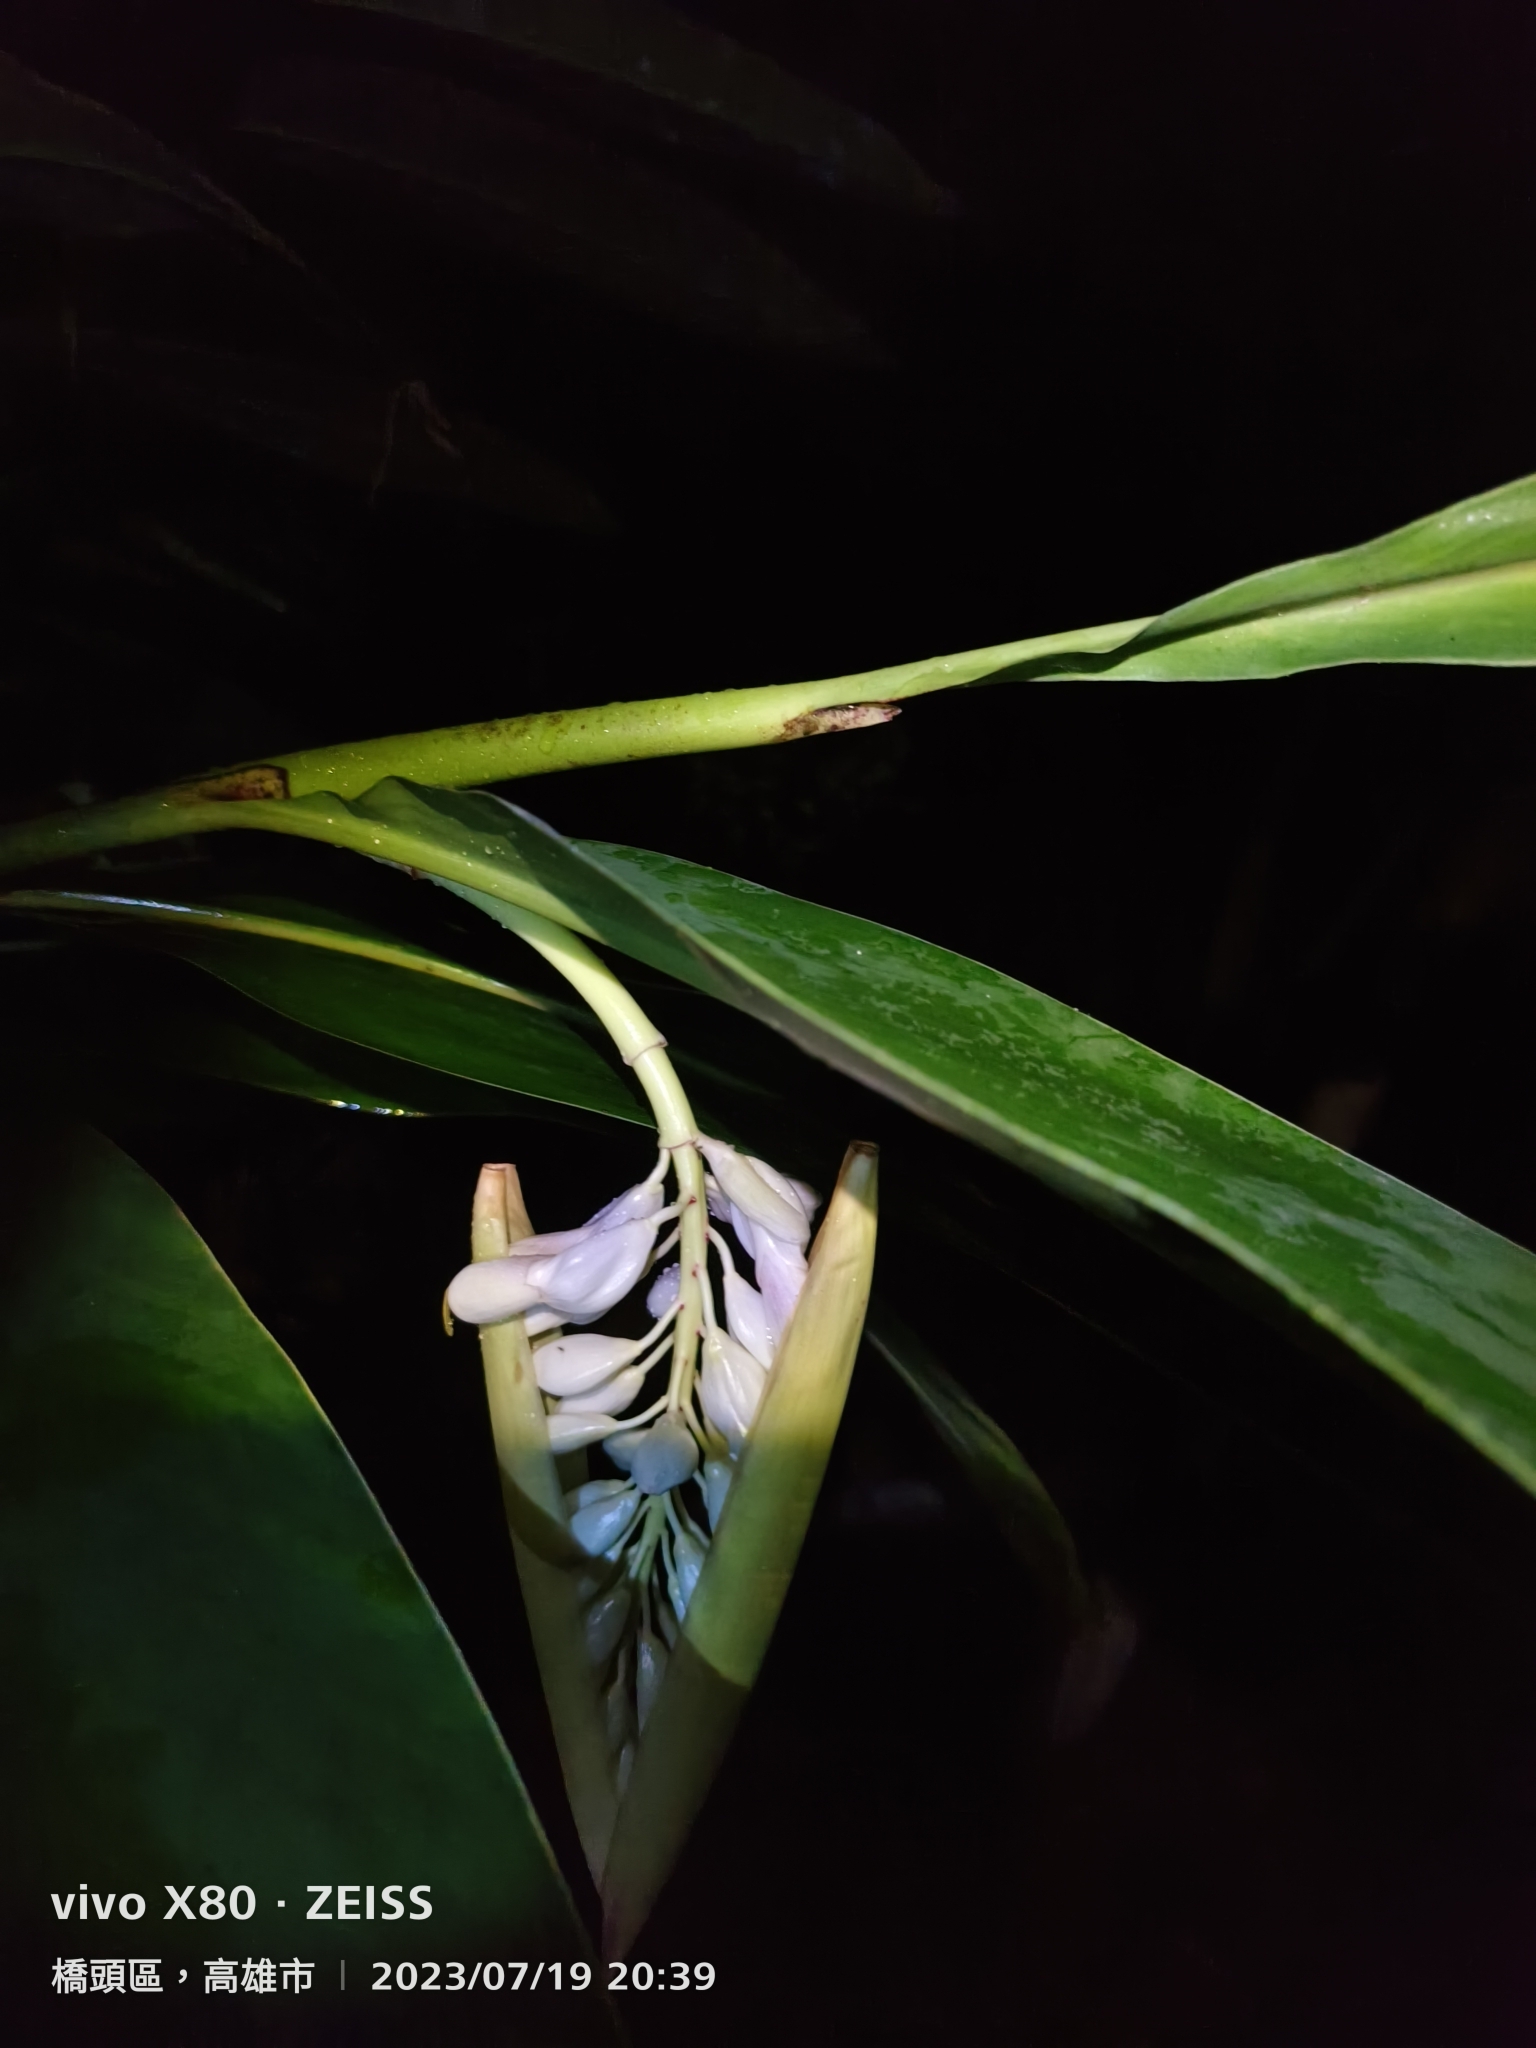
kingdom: Plantae
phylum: Tracheophyta
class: Liliopsida
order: Zingiberales
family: Zingiberaceae
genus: Alpinia
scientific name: Alpinia zerumbet
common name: Shellplant
